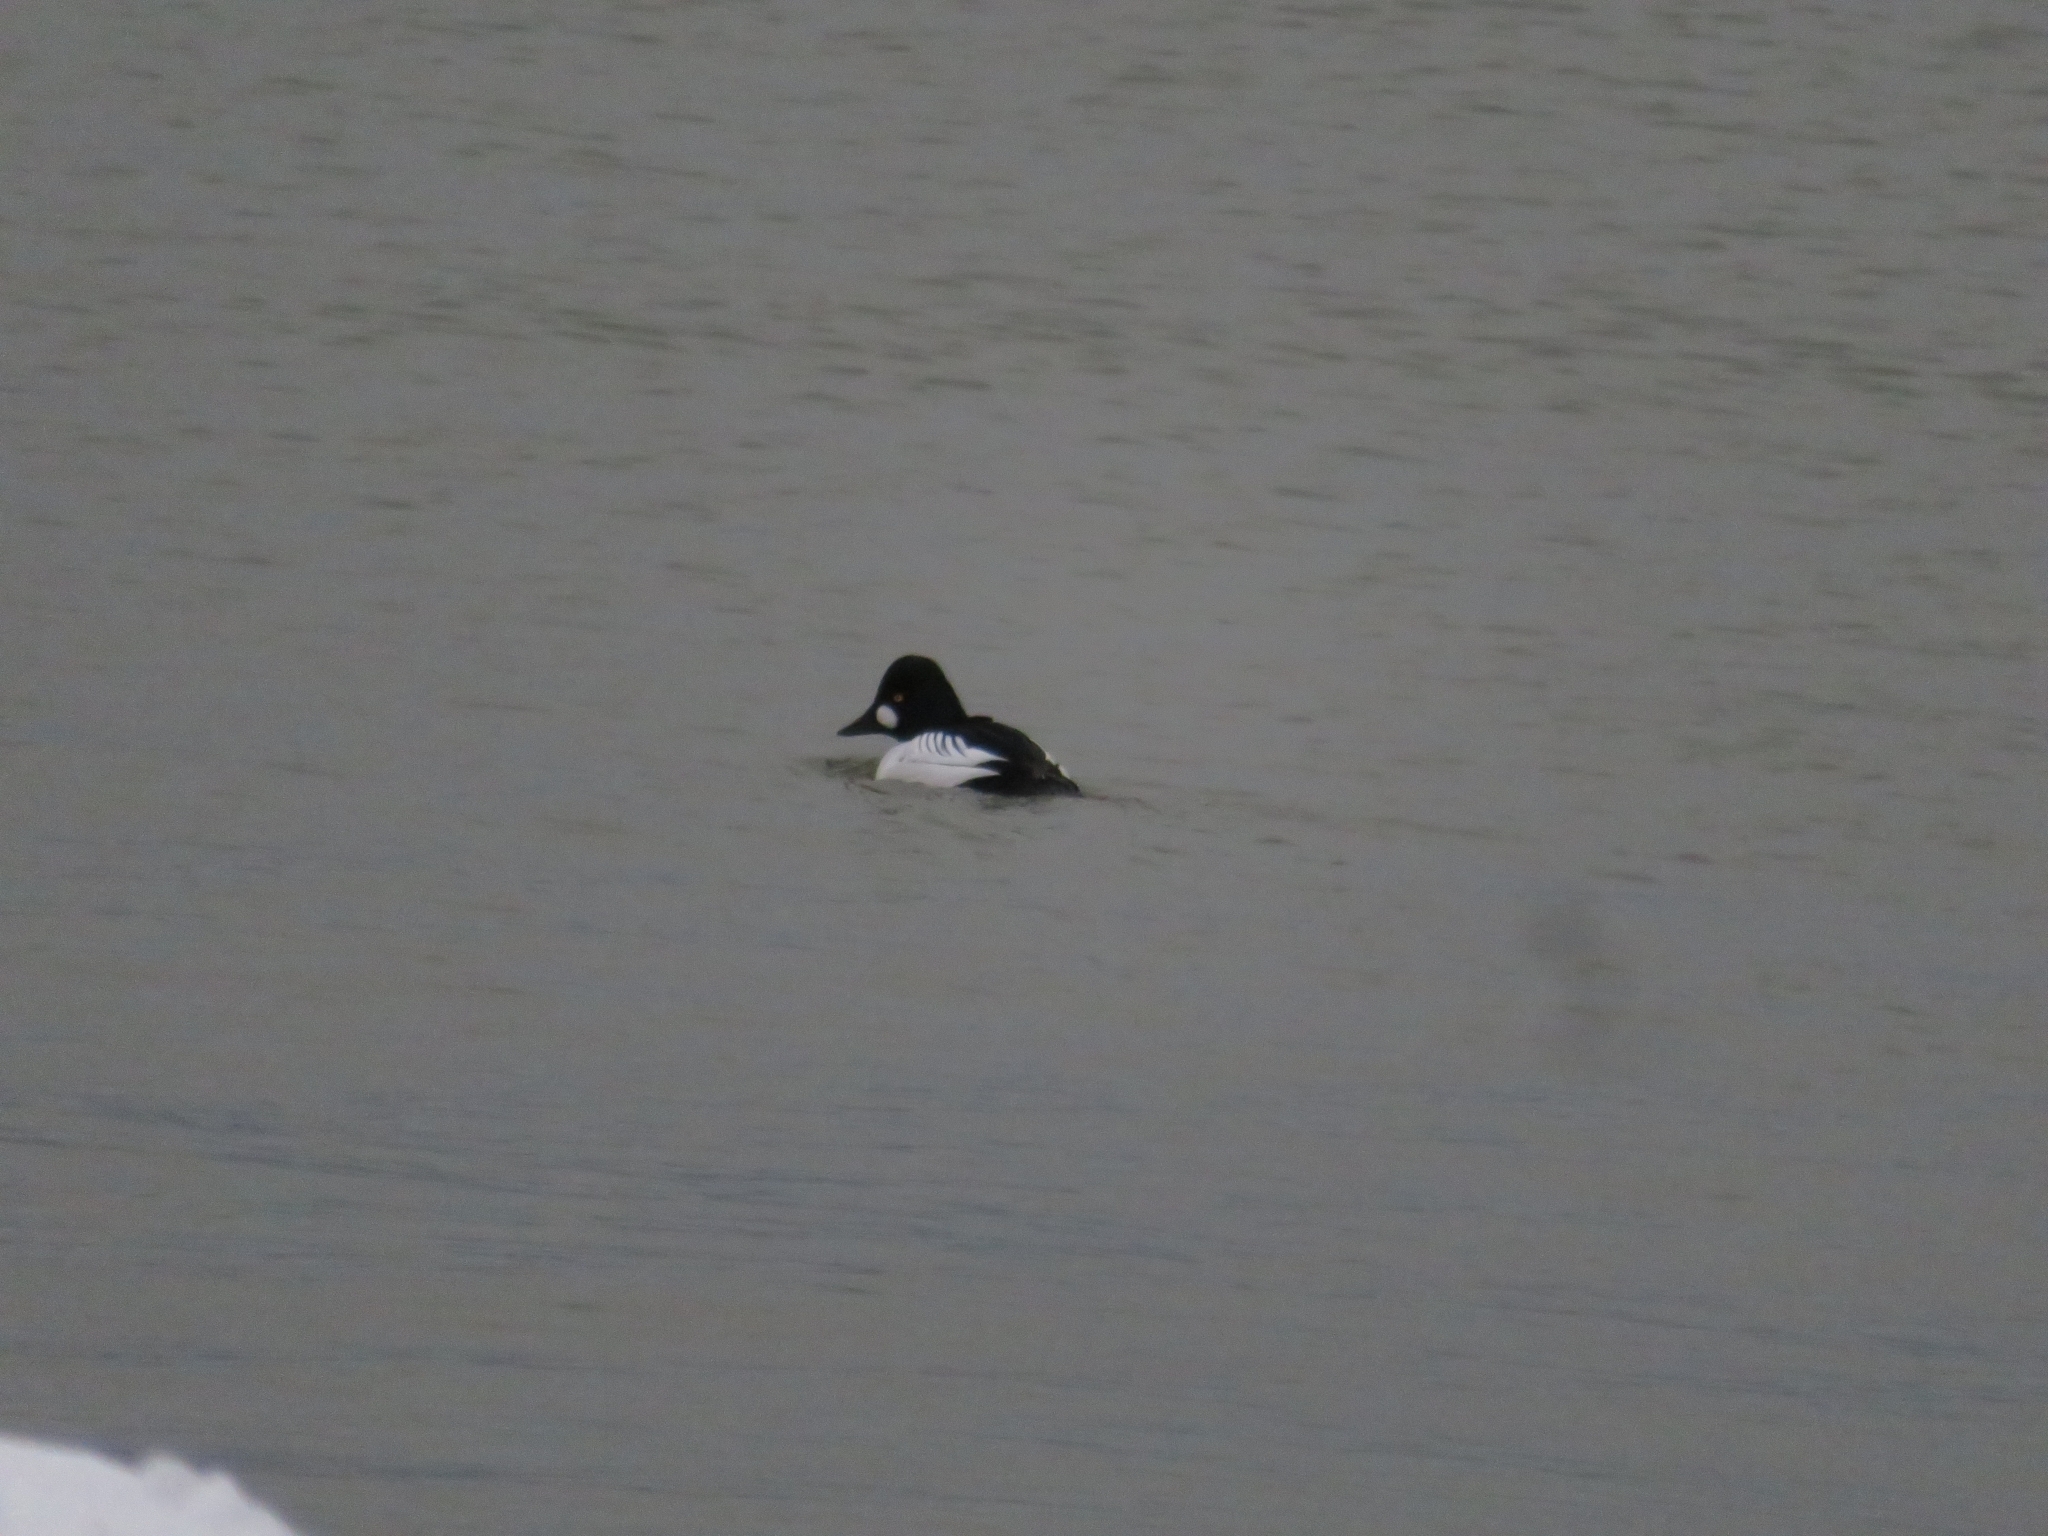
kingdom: Animalia
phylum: Chordata
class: Aves
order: Anseriformes
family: Anatidae
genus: Bucephala
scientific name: Bucephala clangula
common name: Common goldeneye
